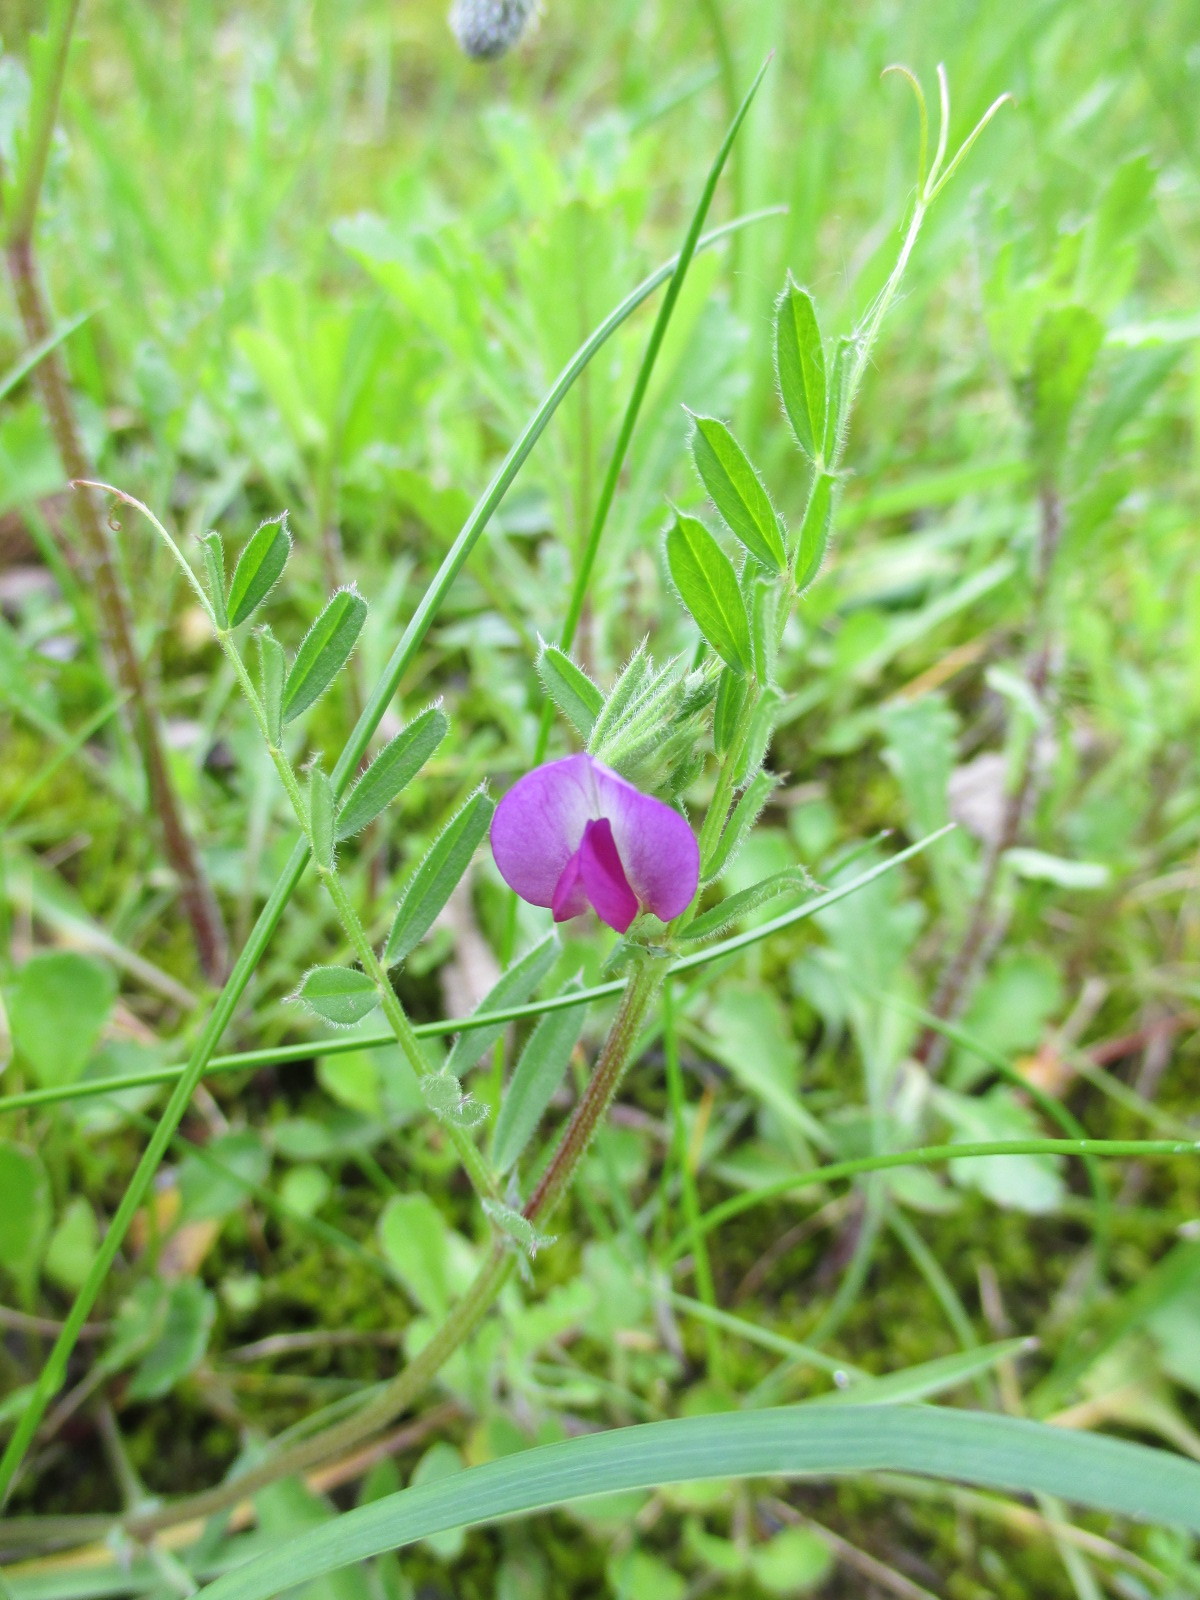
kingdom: Plantae
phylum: Tracheophyta
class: Magnoliopsida
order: Fabales
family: Fabaceae
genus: Vicia
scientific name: Vicia sativa
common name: Garden vetch
